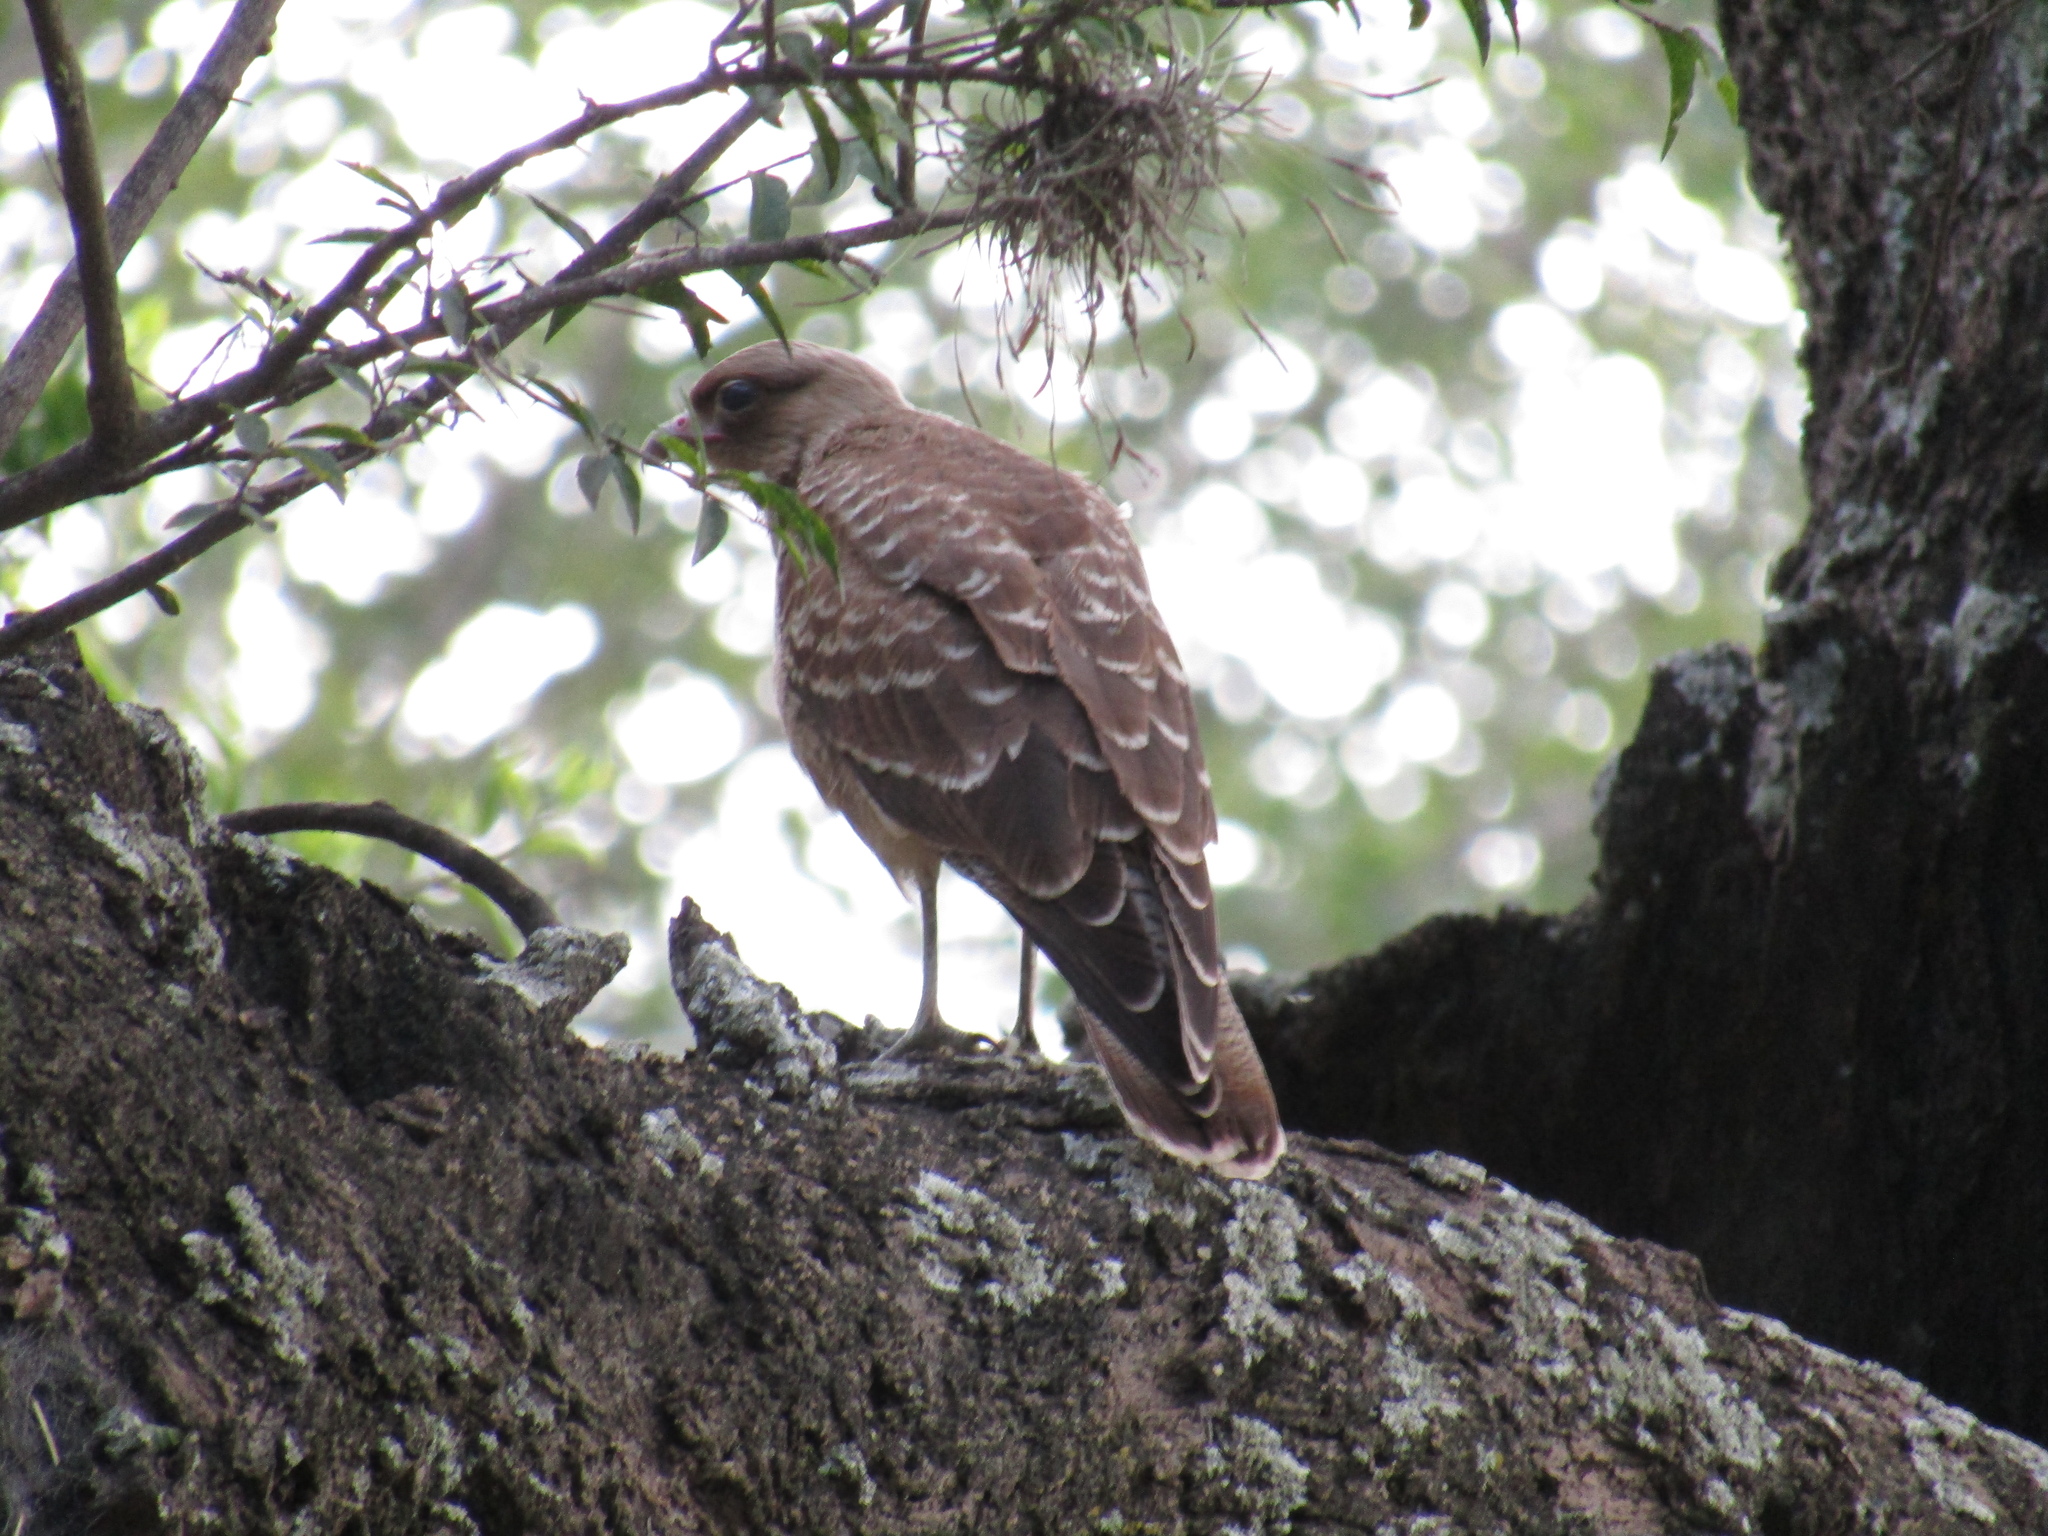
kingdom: Animalia
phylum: Chordata
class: Aves
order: Falconiformes
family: Falconidae
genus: Daptrius
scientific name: Daptrius
